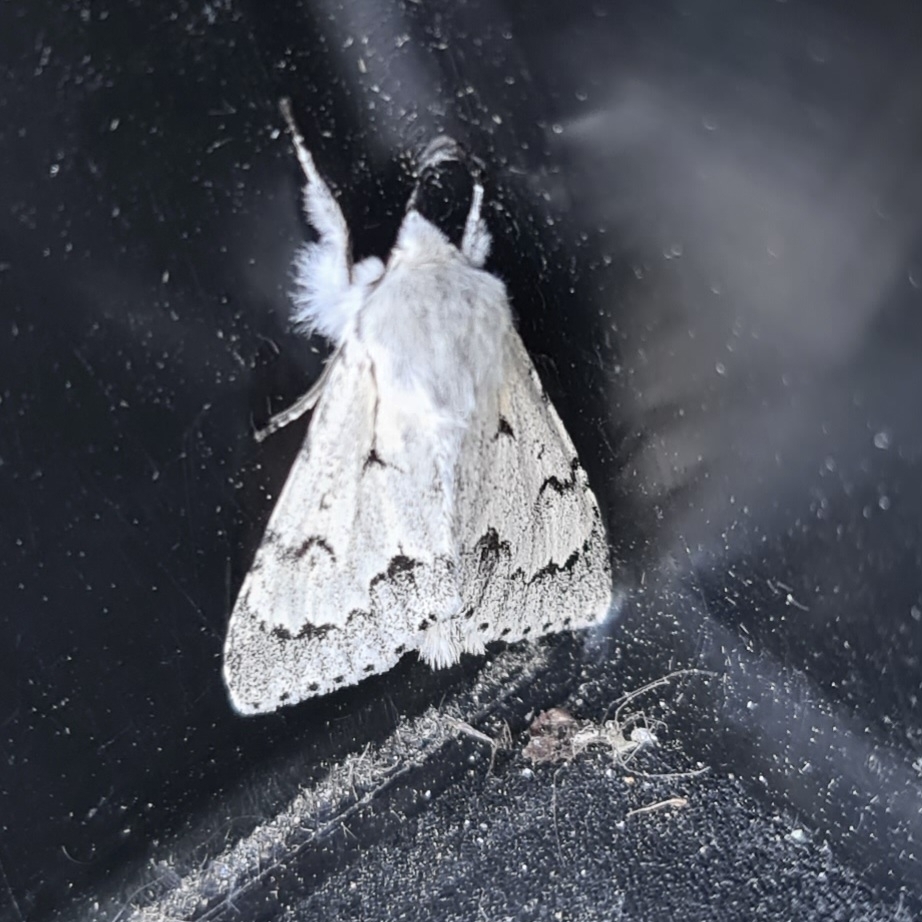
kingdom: Animalia
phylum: Arthropoda
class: Insecta
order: Lepidoptera
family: Noctuidae
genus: Acronicta
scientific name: Acronicta leporina
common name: Miller
